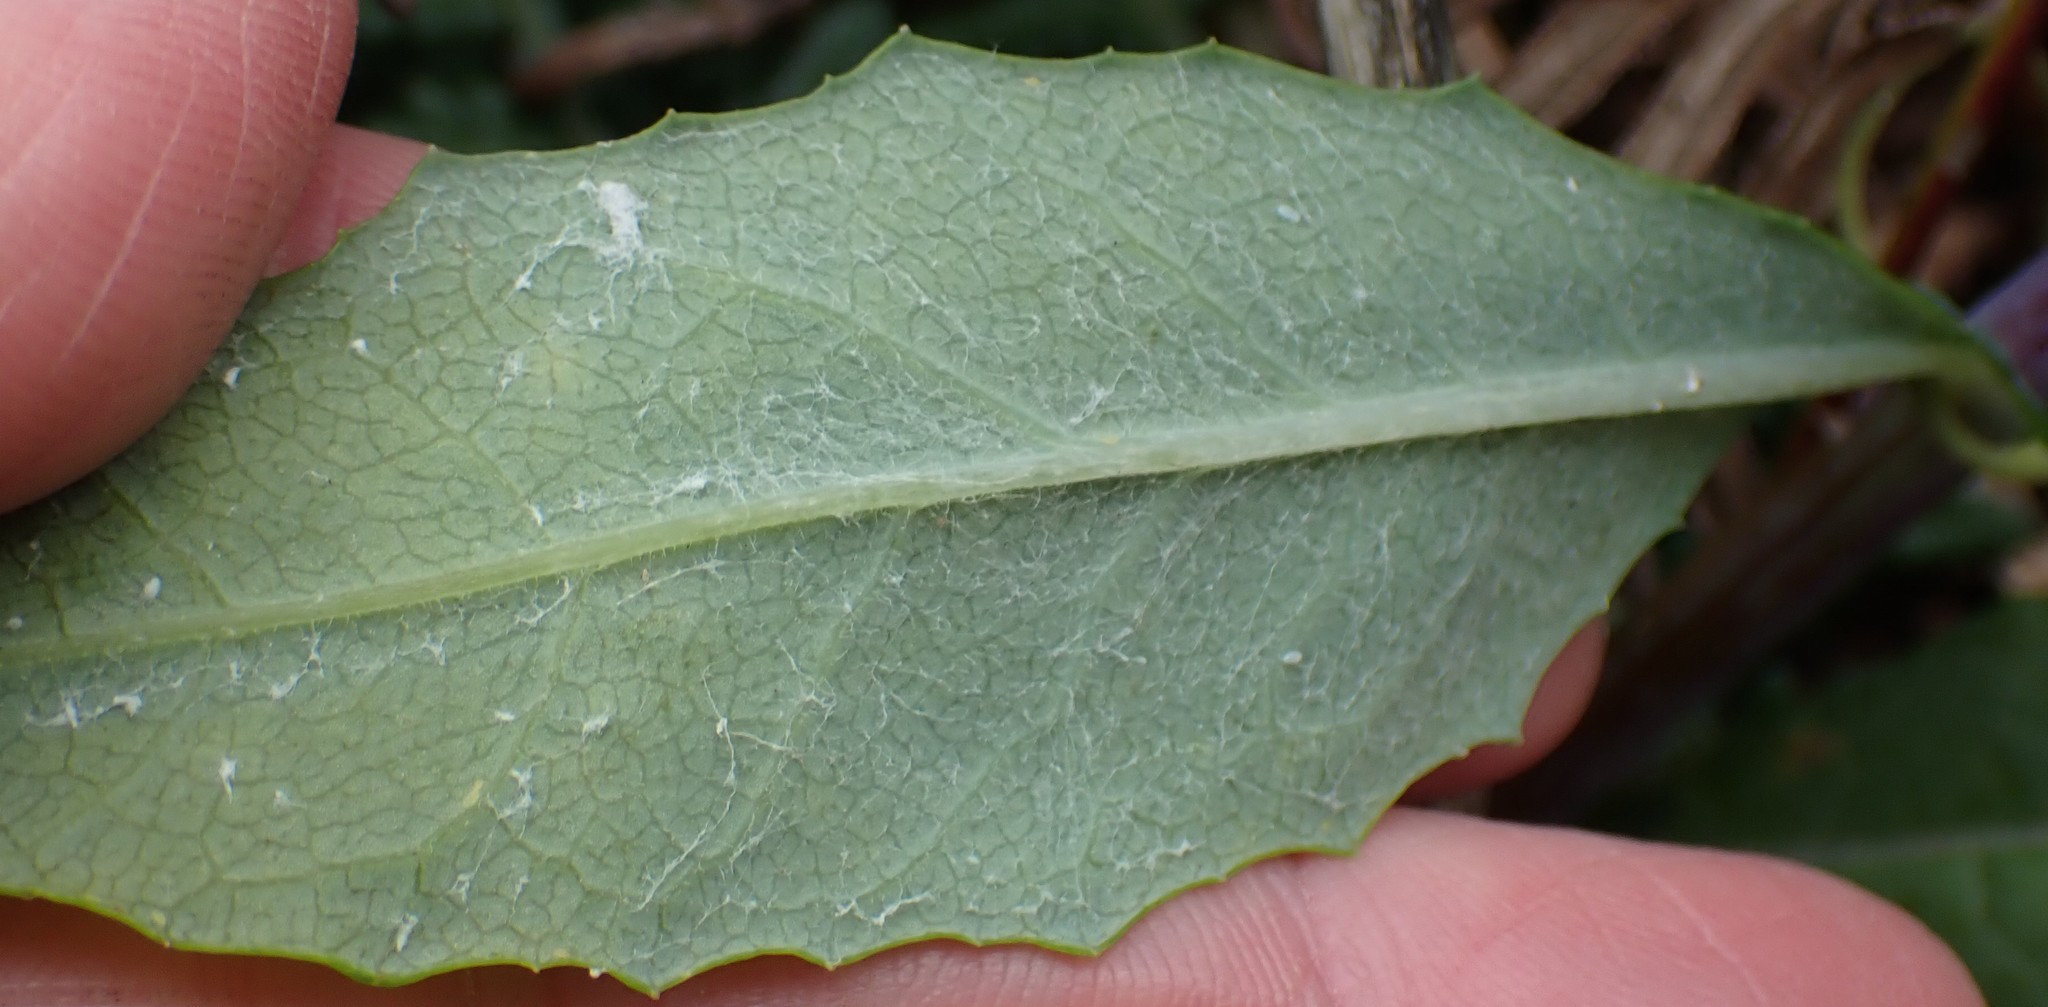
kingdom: Plantae
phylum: Tracheophyta
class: Magnoliopsida
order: Asterales
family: Asteraceae
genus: Senecio
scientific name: Senecio odoratus
